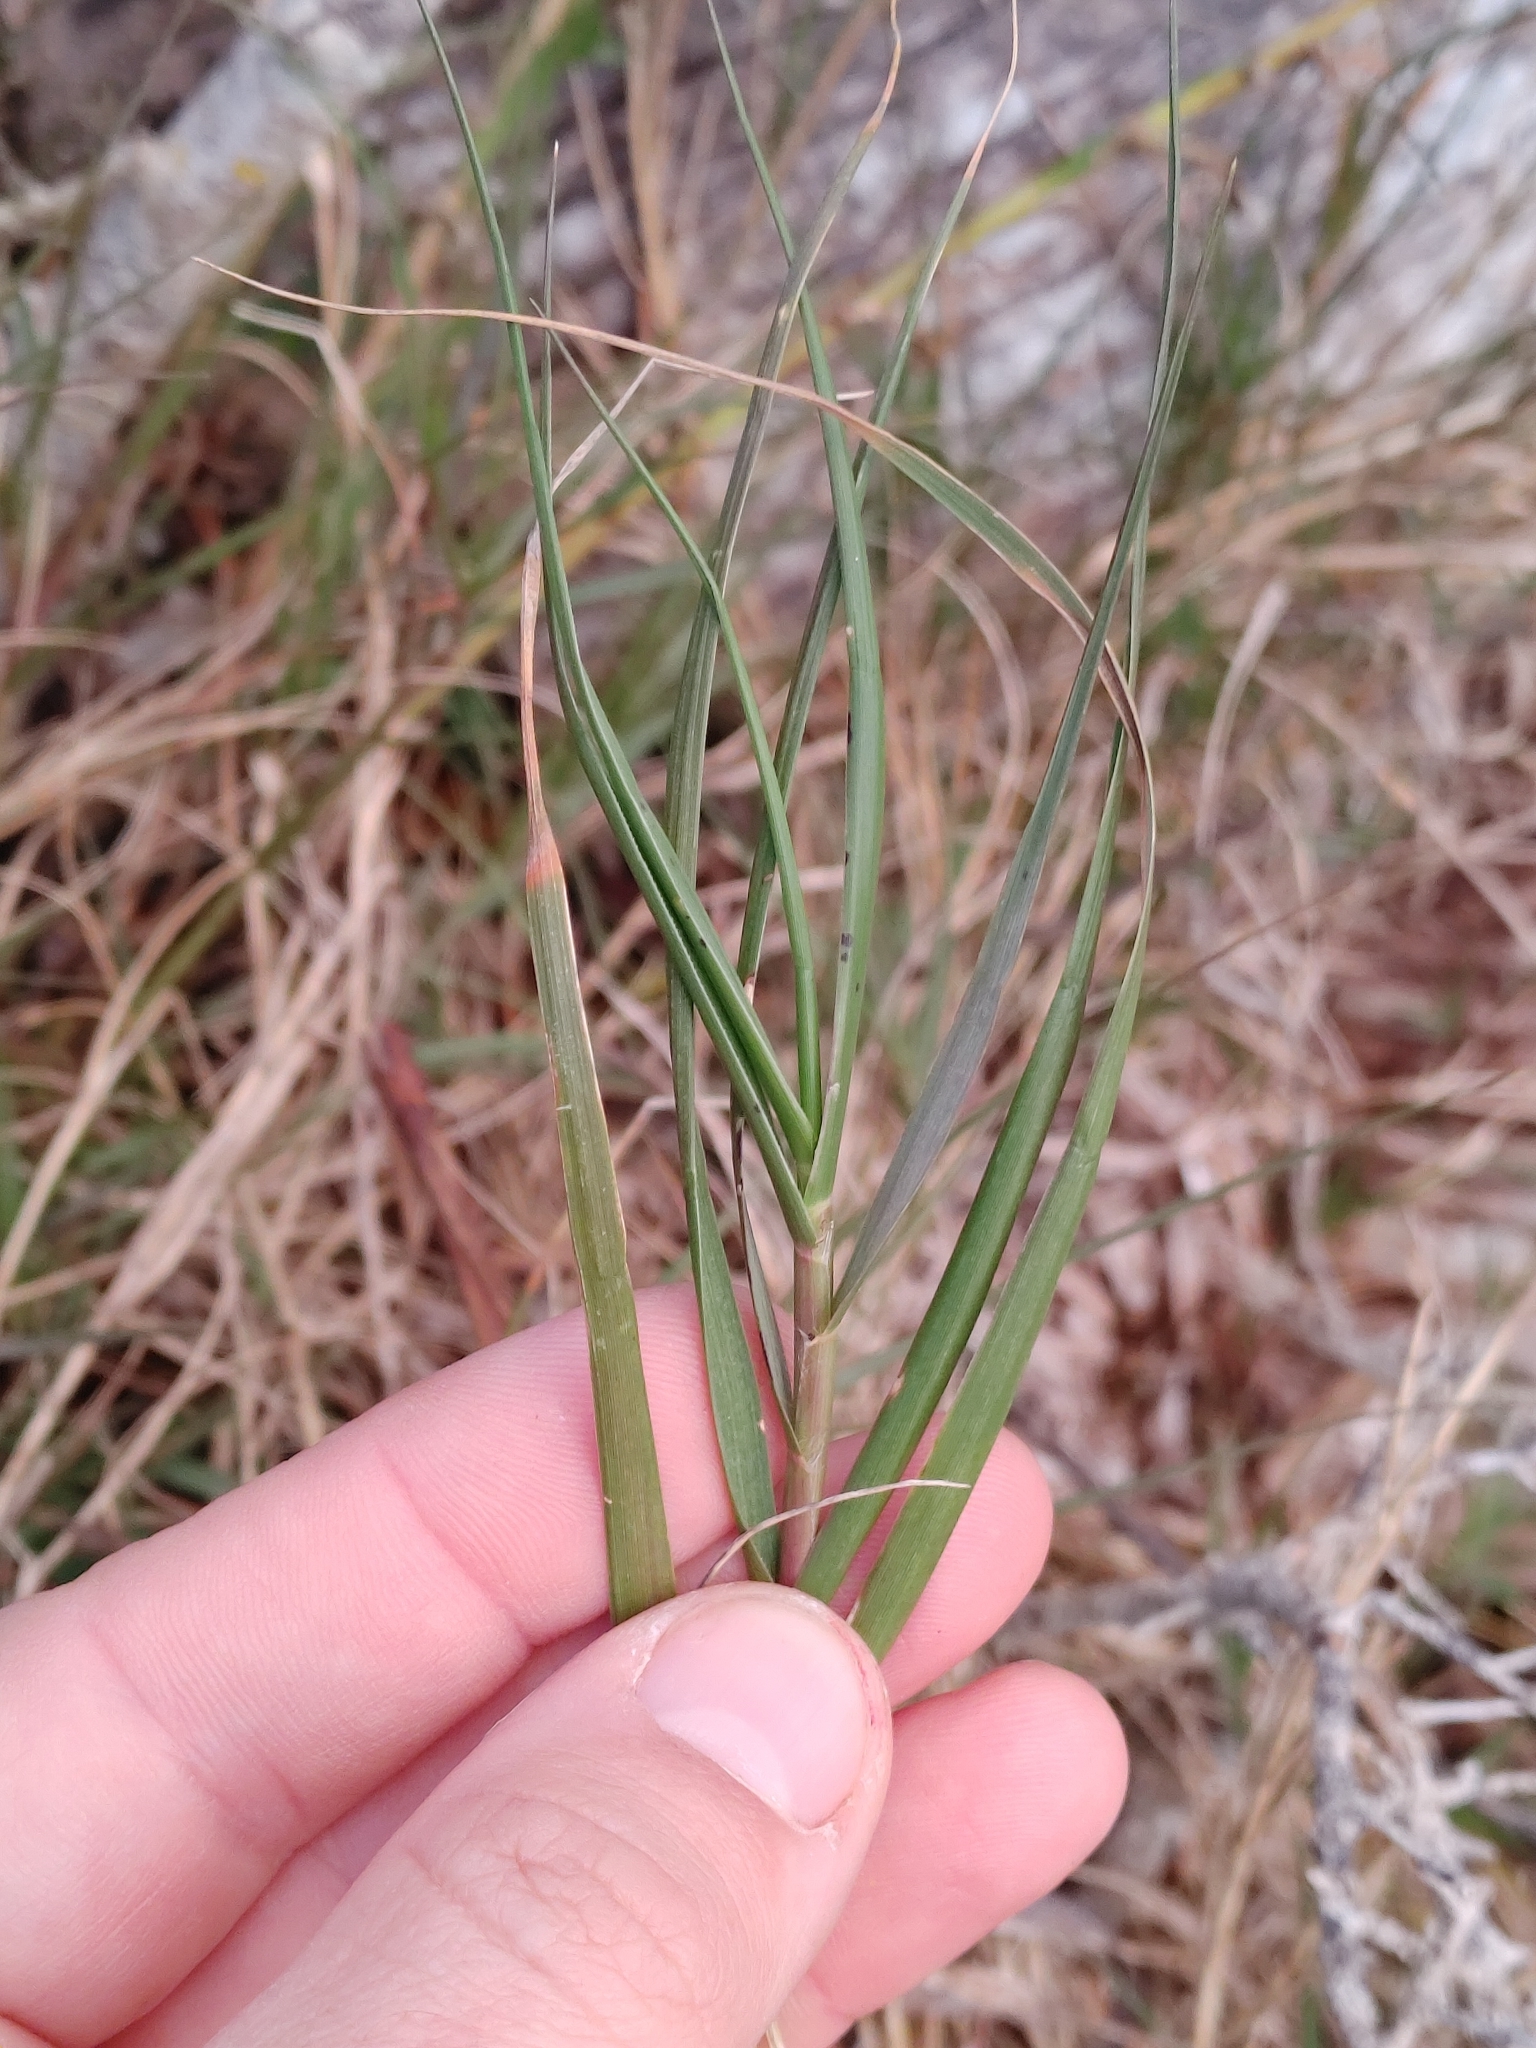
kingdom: Plantae
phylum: Tracheophyta
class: Liliopsida
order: Poales
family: Poaceae
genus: Distichlis
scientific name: Distichlis spicata
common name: Saltgrass
